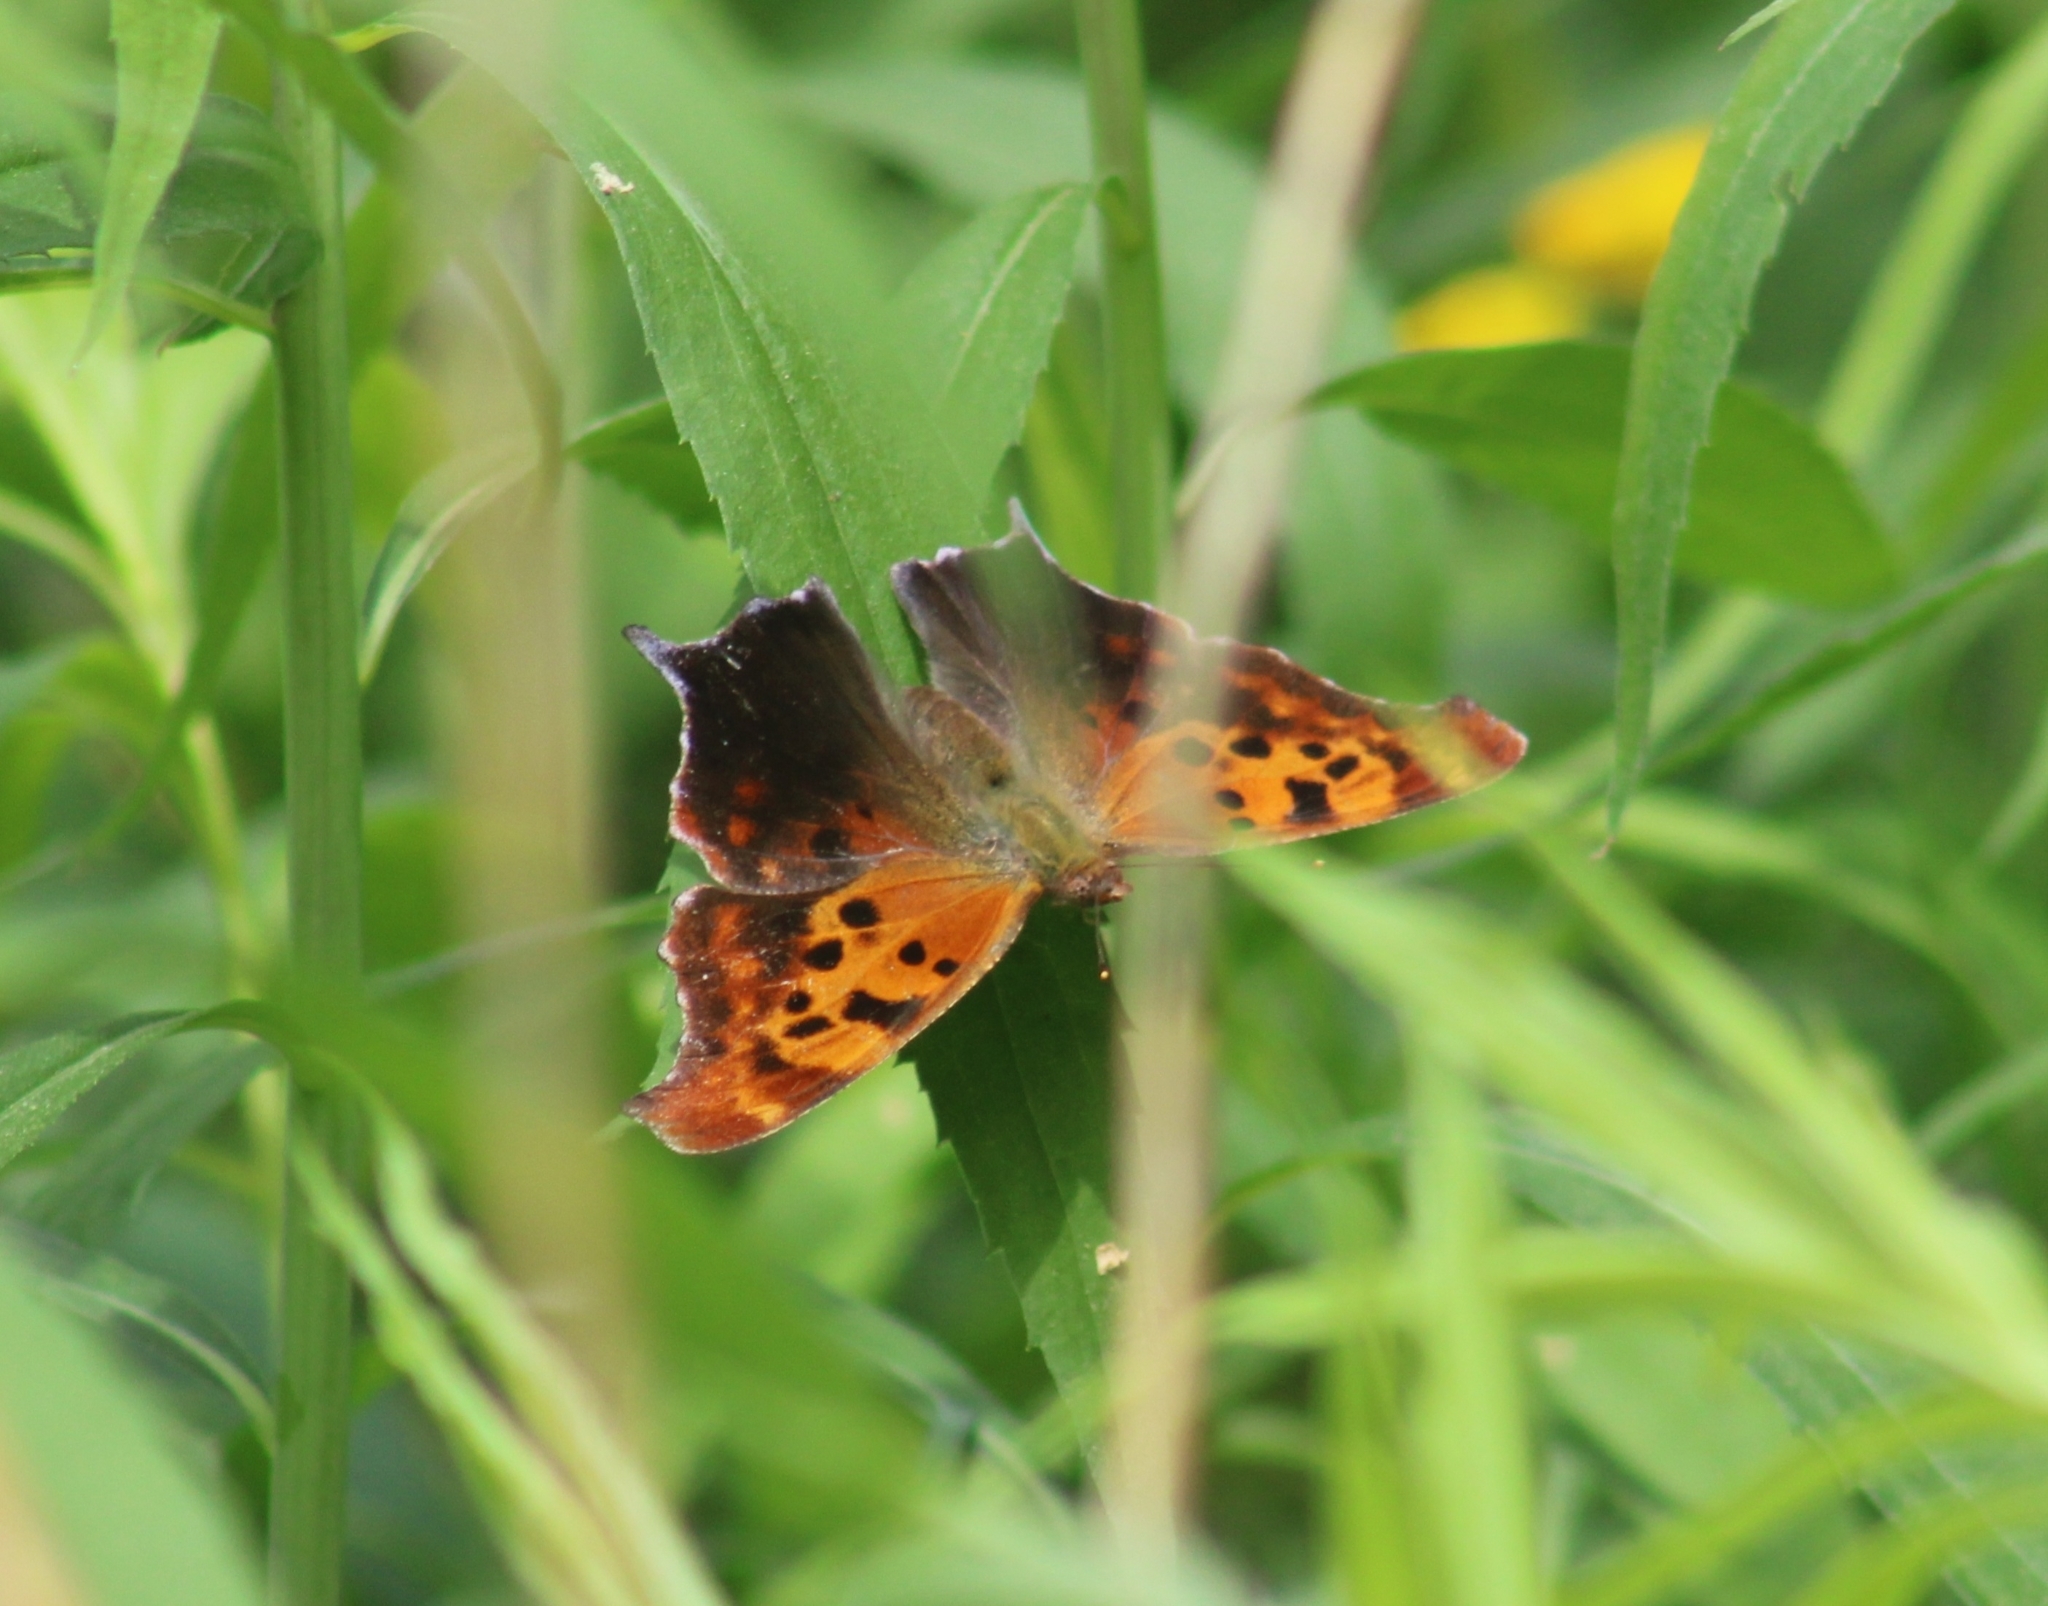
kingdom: Animalia
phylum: Arthropoda
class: Insecta
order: Lepidoptera
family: Nymphalidae
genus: Polygonia
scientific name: Polygonia interrogationis
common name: Question mark
